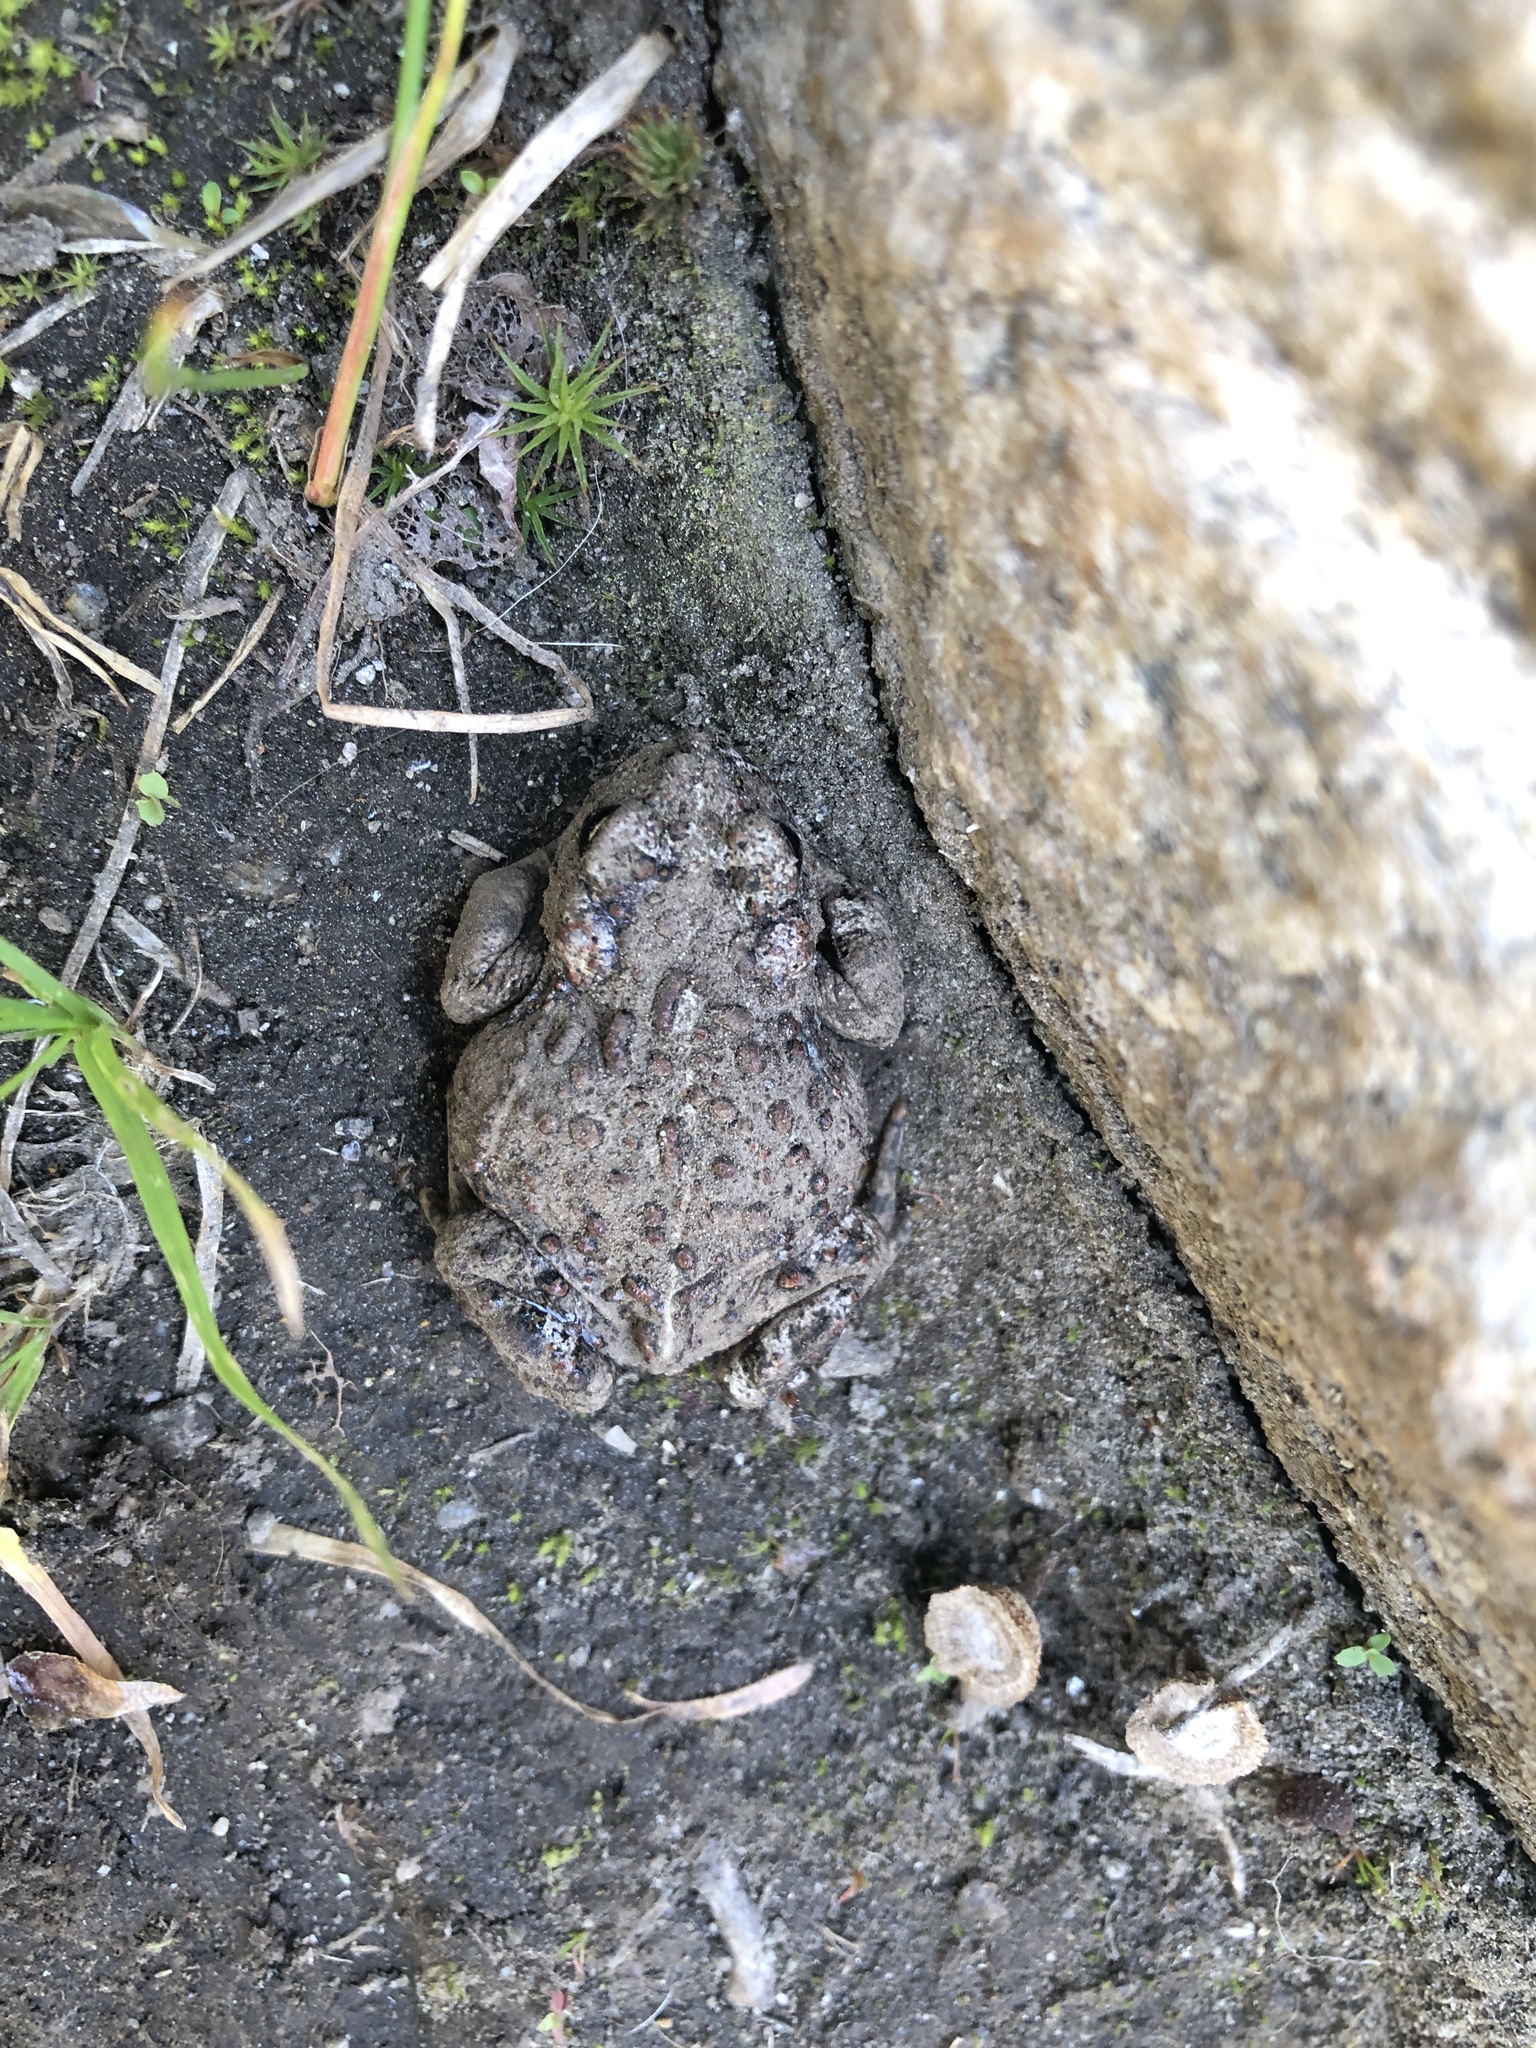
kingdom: Animalia
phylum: Chordata
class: Amphibia
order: Anura
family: Bufonidae
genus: Anaxyrus
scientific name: Anaxyrus boreas
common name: Western toad
